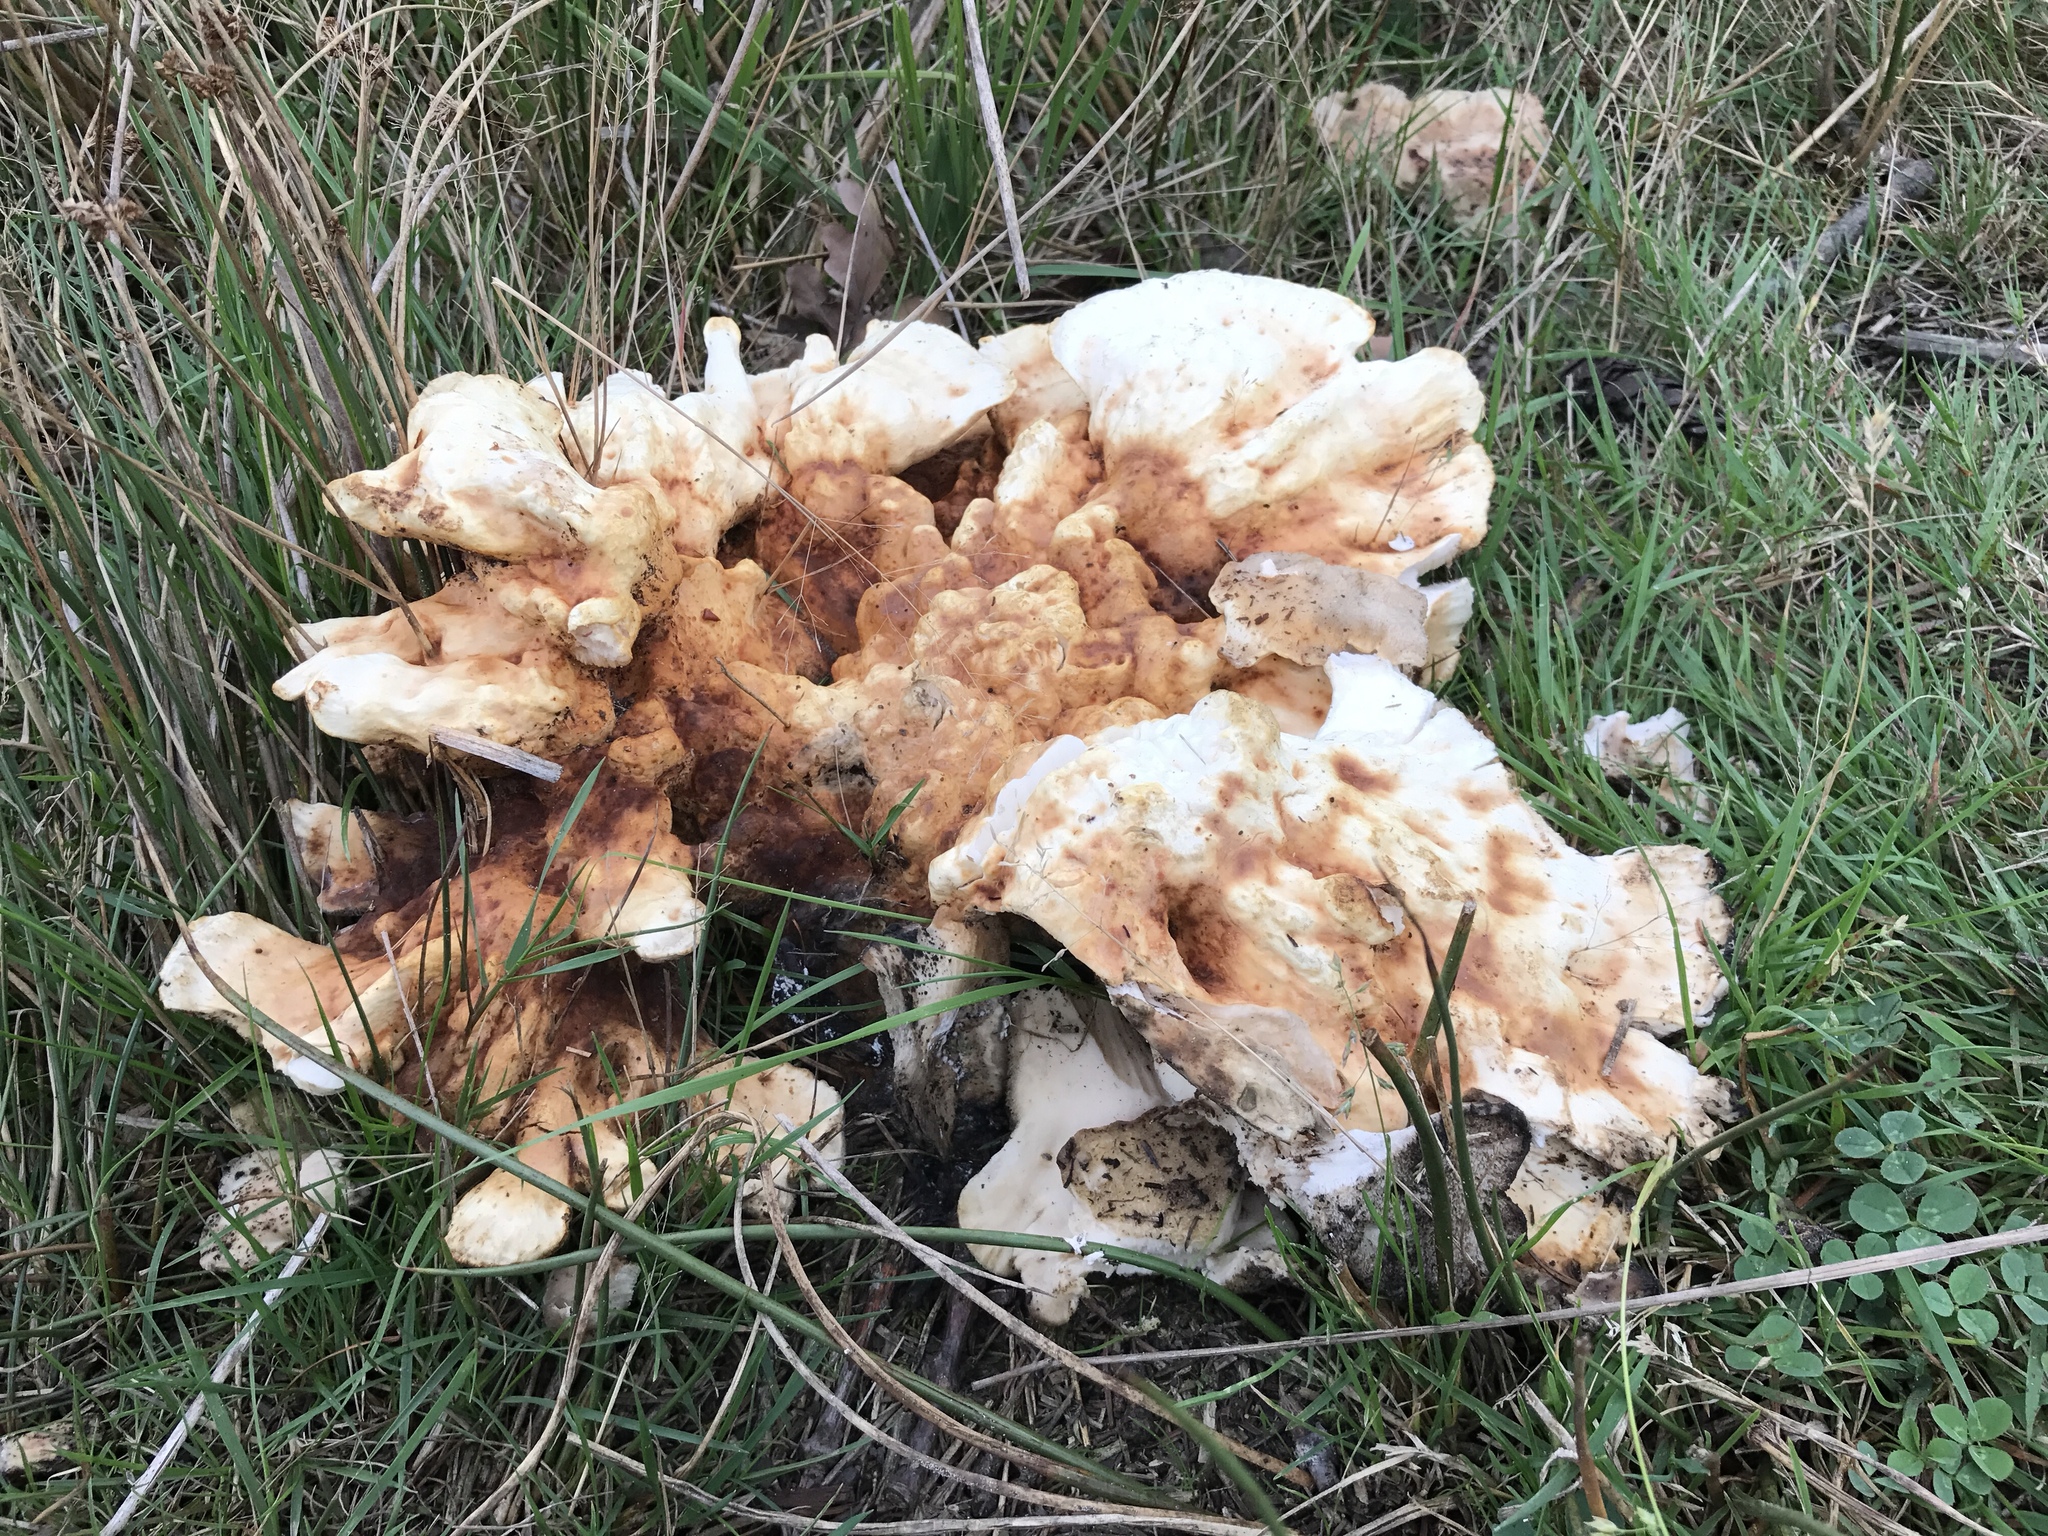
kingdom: Fungi
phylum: Basidiomycota
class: Agaricomycetes
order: Polyporales
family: Laetiporaceae
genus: Laetiporus
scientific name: Laetiporus sulphureus
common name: Chicken of the woods
